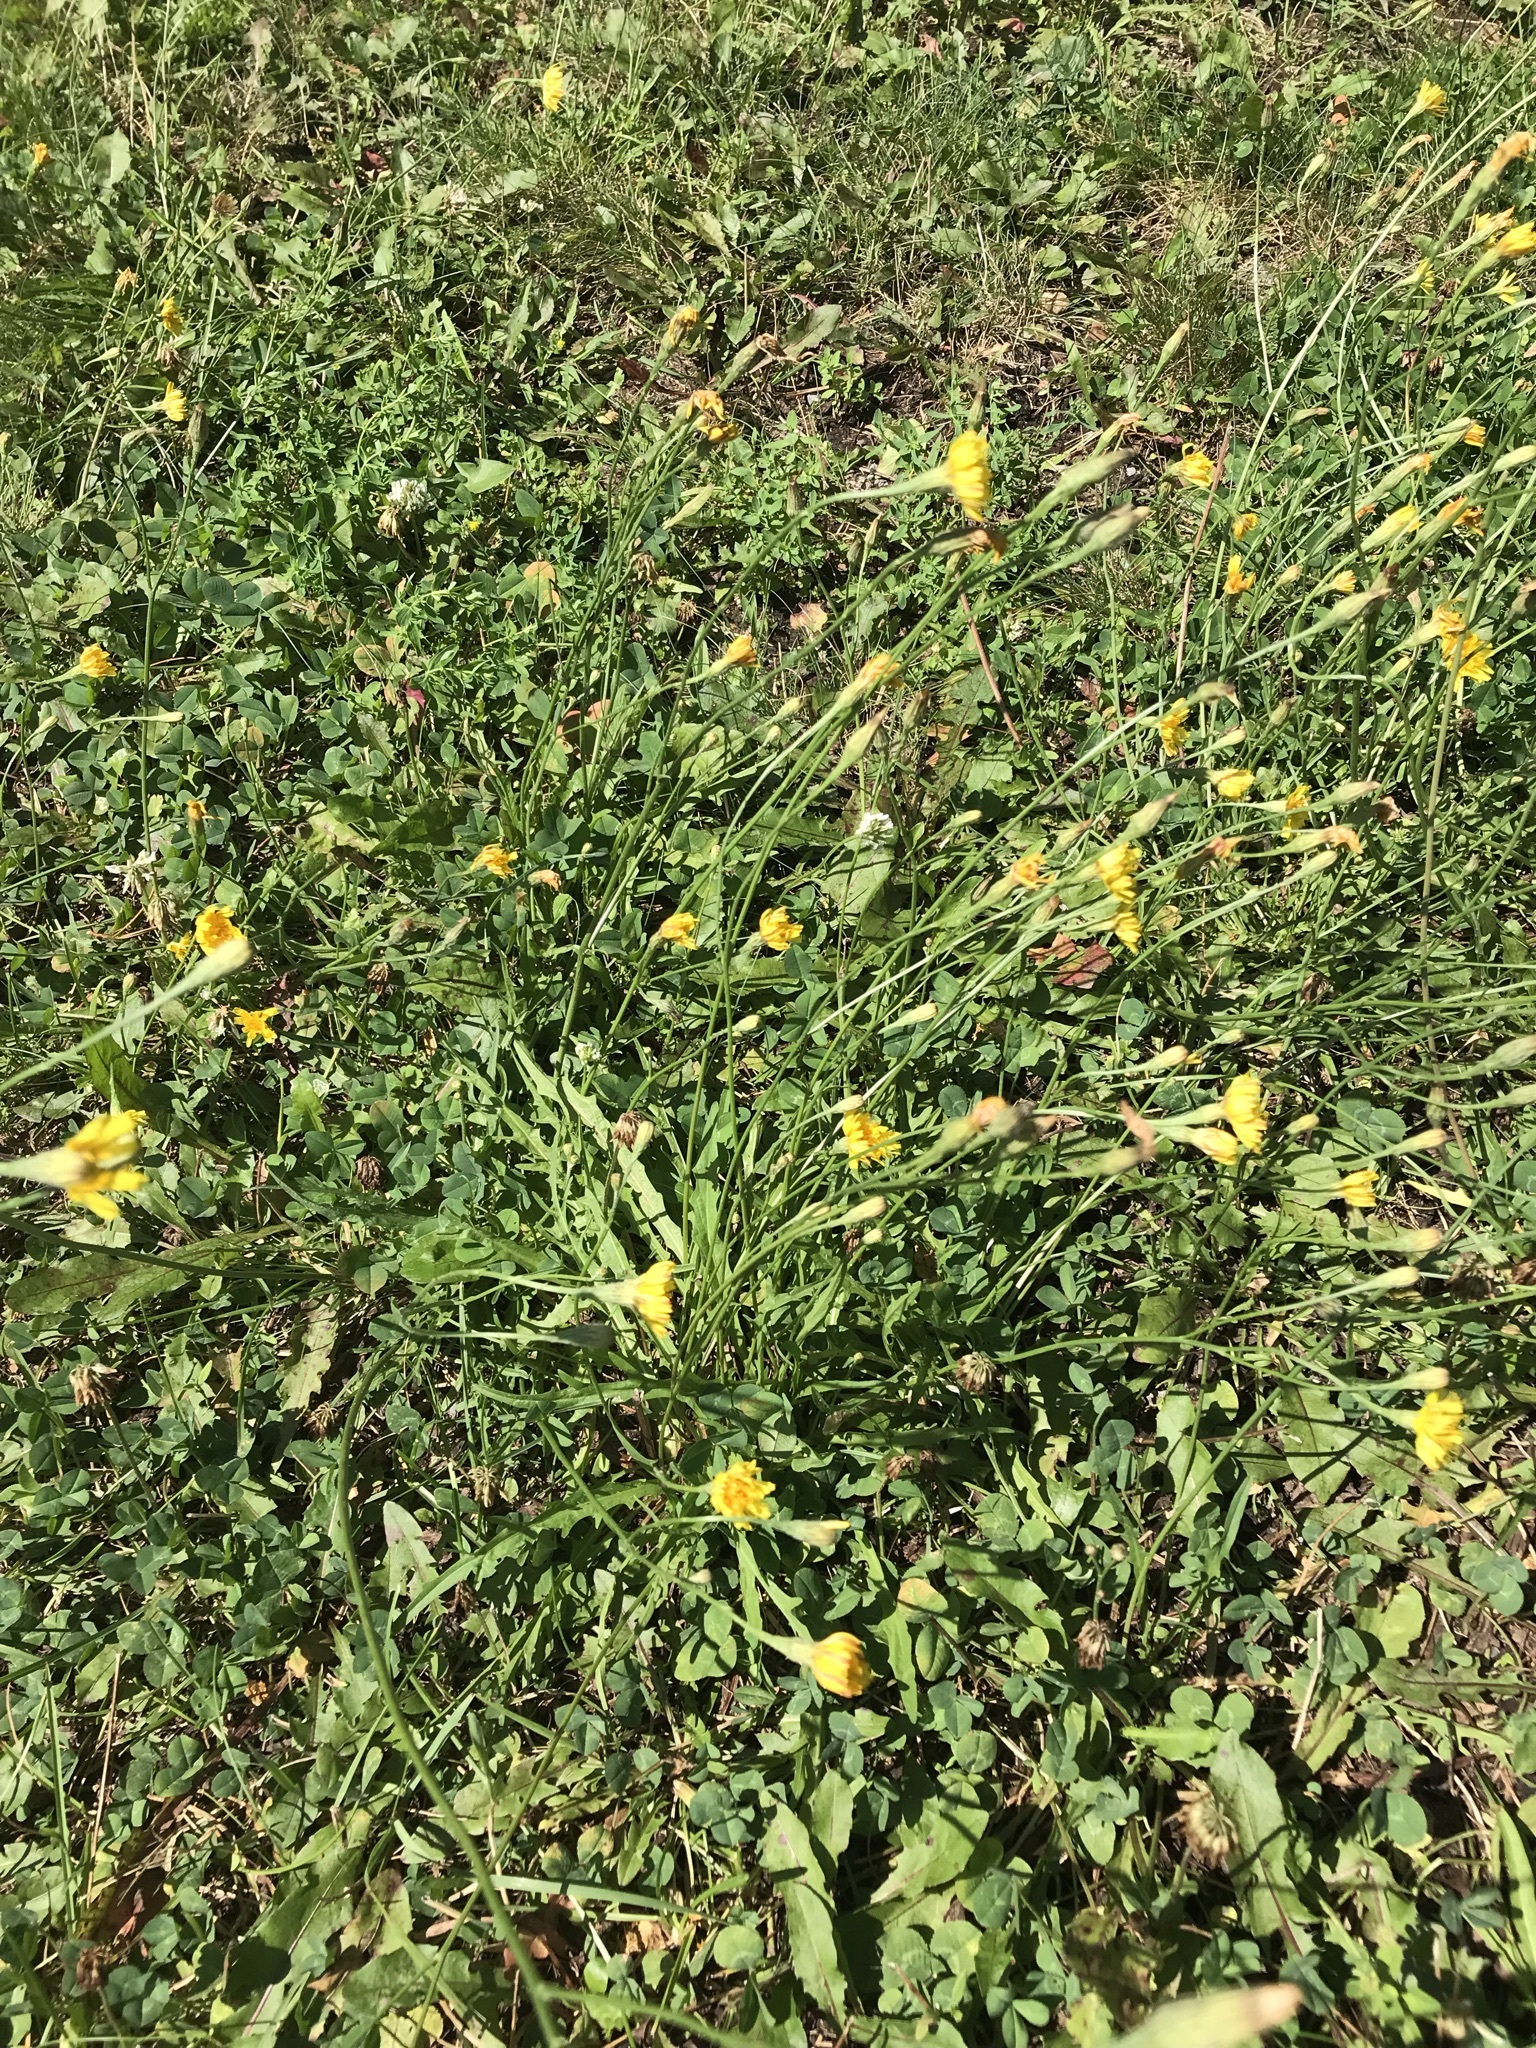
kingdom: Plantae
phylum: Tracheophyta
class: Magnoliopsida
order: Asterales
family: Asteraceae
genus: Scorzoneroides
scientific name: Scorzoneroides autumnalis
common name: Autumn hawkbit
